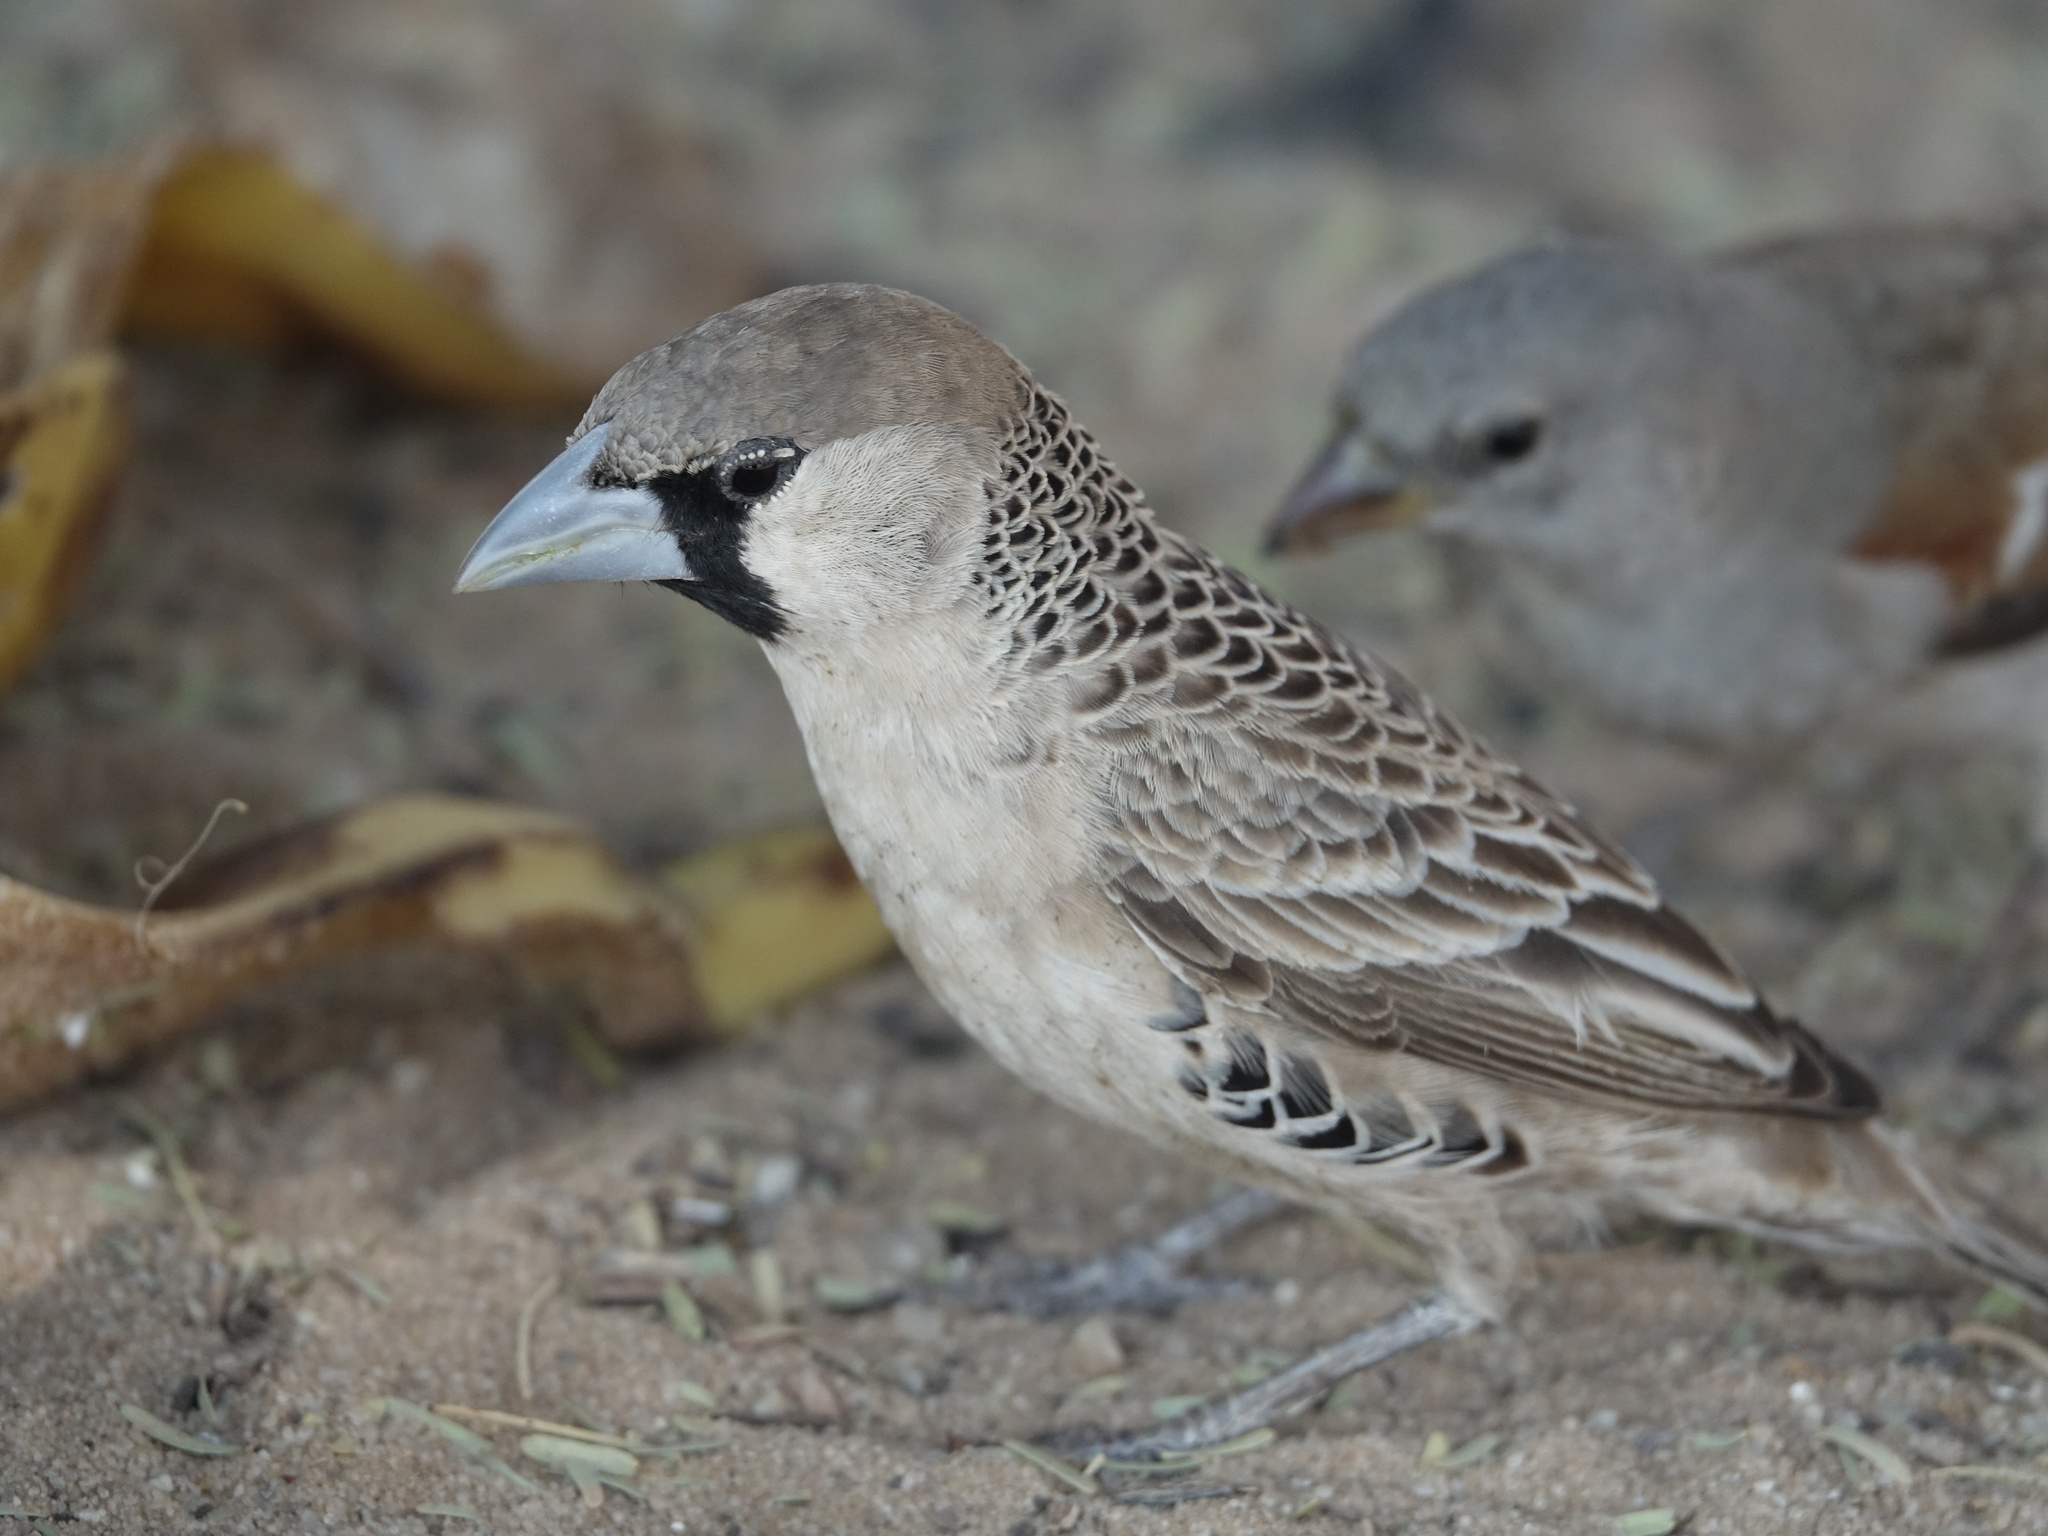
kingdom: Animalia
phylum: Chordata
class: Aves
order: Passeriformes
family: Passeridae
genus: Philetairus
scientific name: Philetairus socius
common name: Sociable weaver
